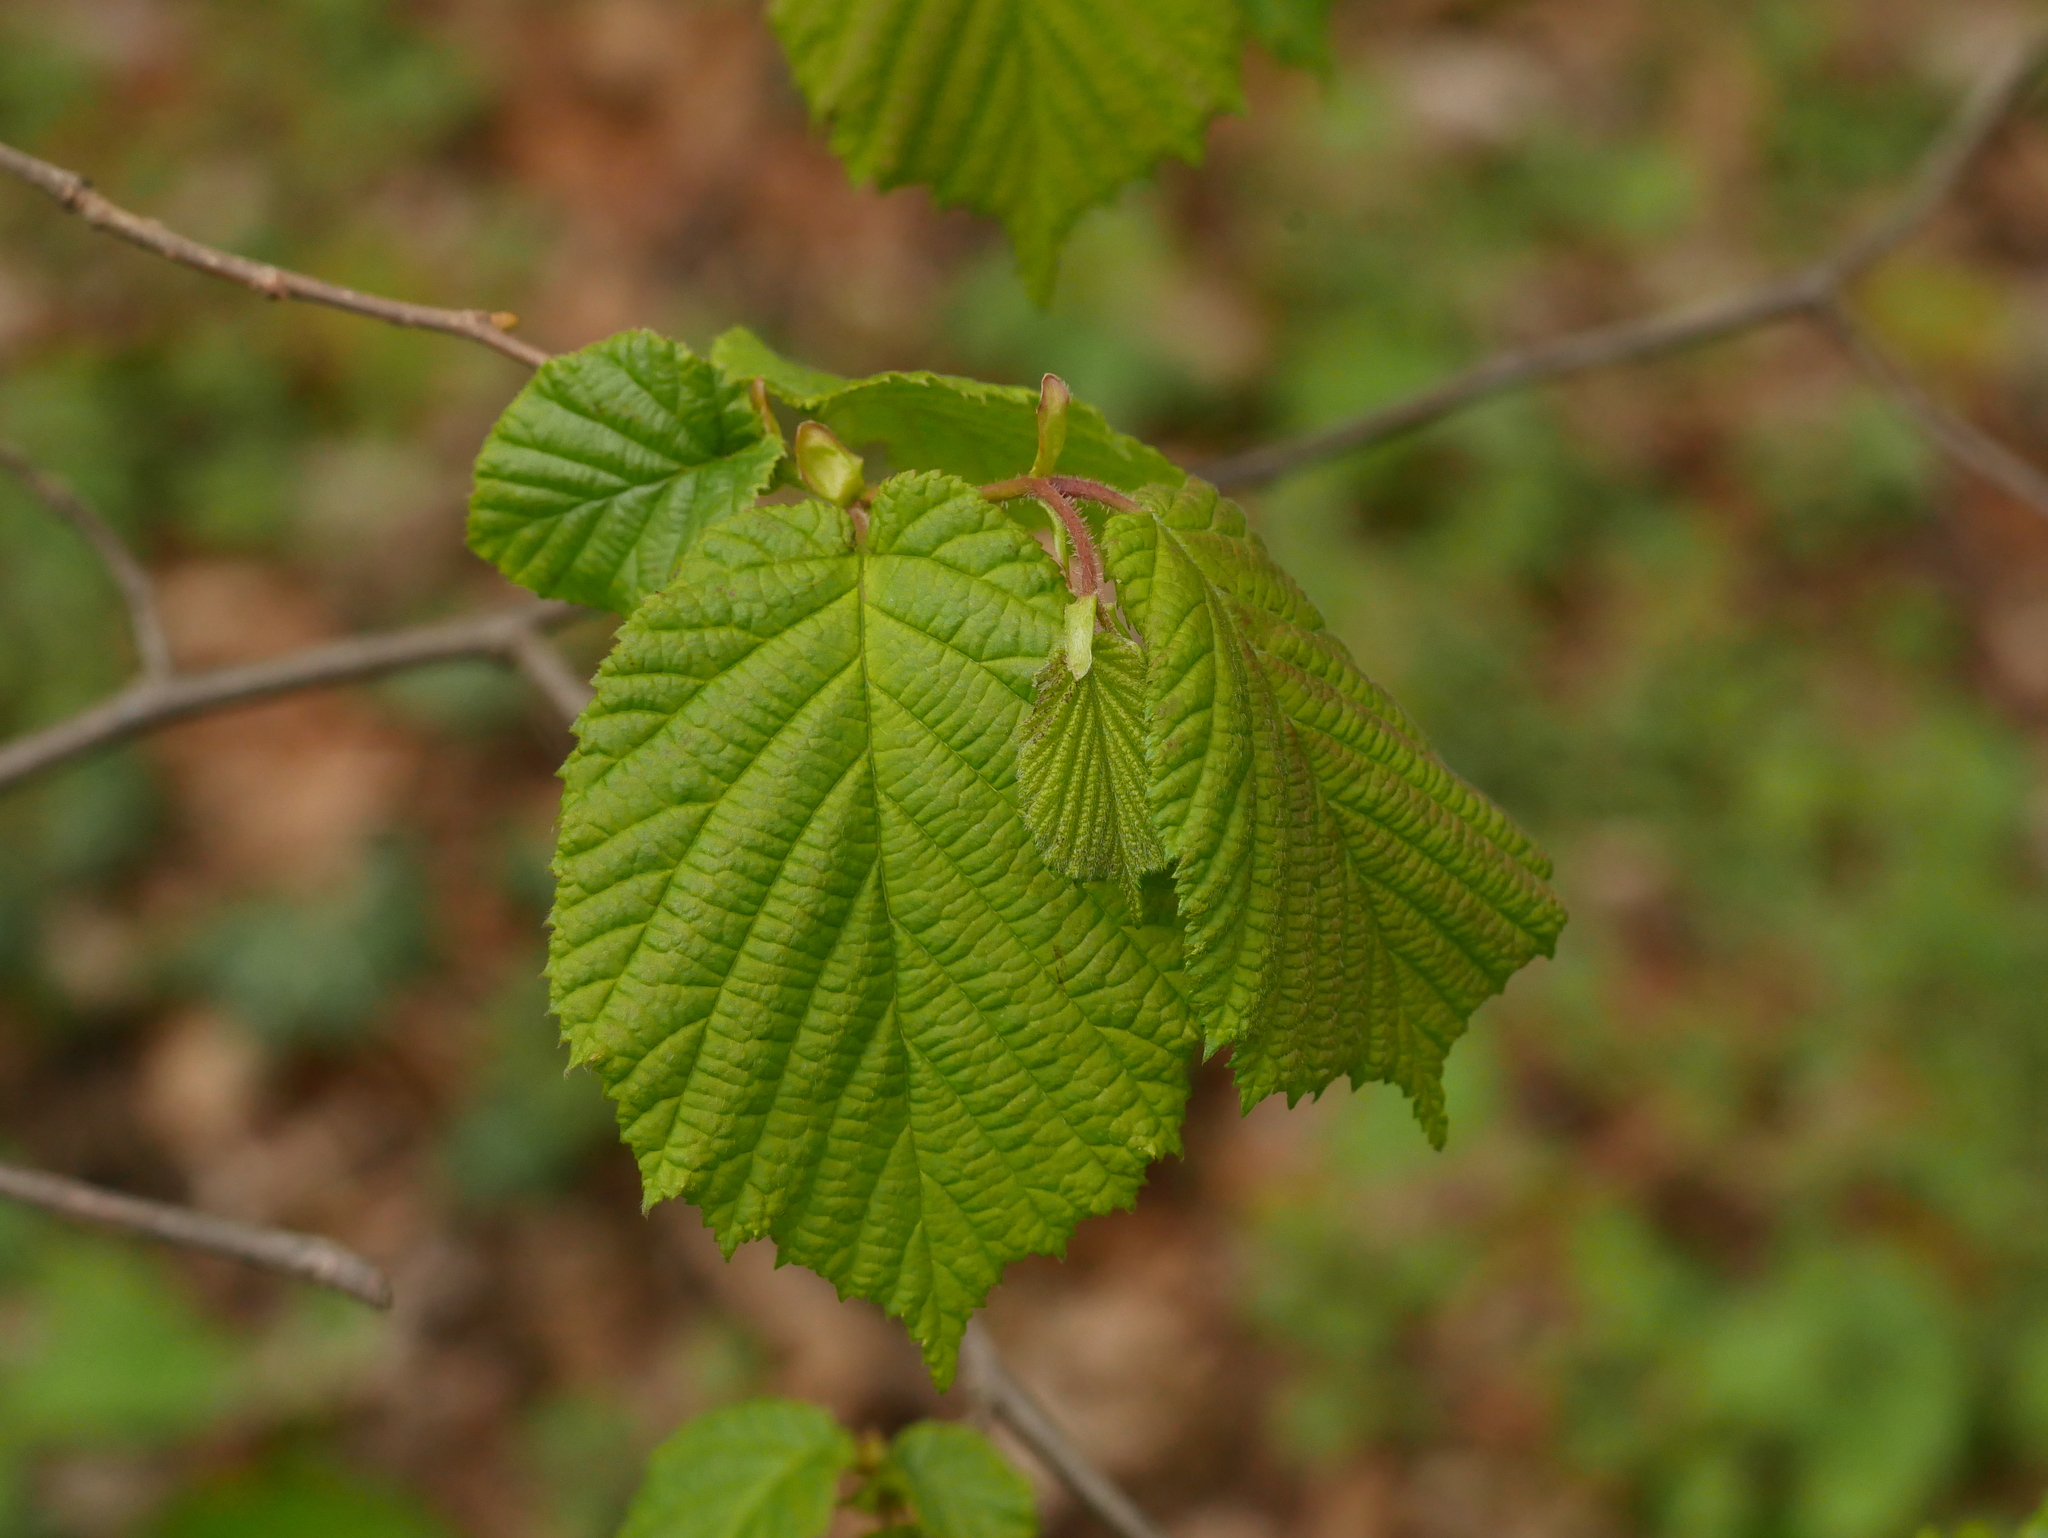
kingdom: Plantae
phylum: Tracheophyta
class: Magnoliopsida
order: Fagales
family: Betulaceae
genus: Corylus
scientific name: Corylus avellana
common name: European hazel
